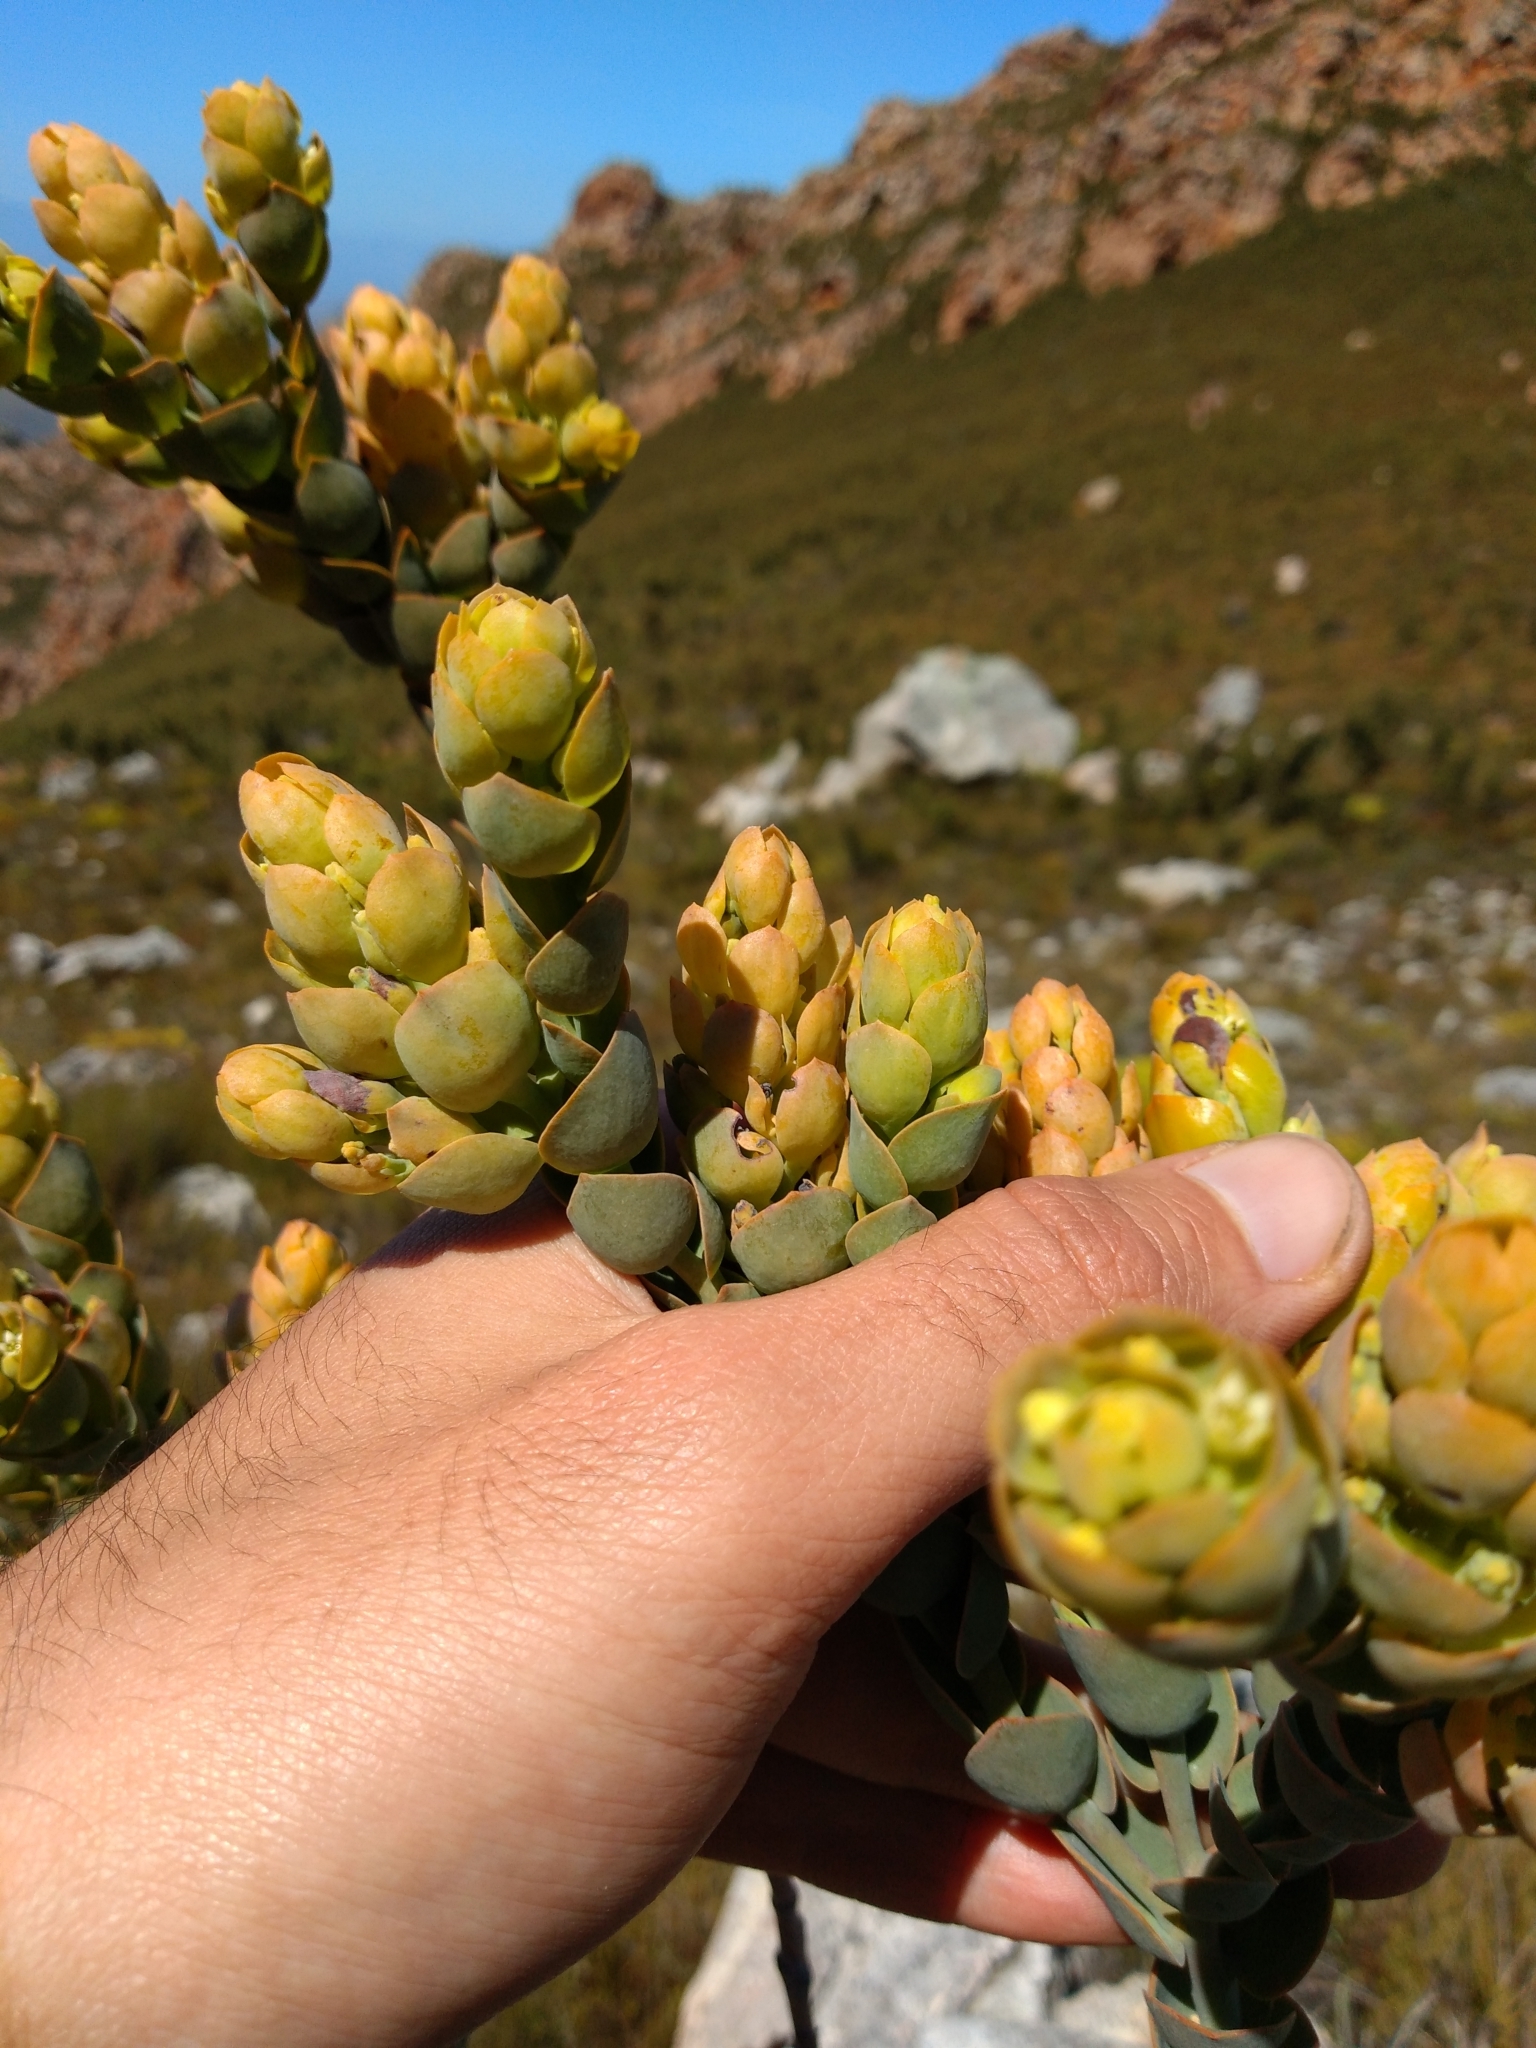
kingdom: Plantae
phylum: Tracheophyta
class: Magnoliopsida
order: Santalales
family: Thesiaceae
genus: Thesium
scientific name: Thesium euphorbioides
